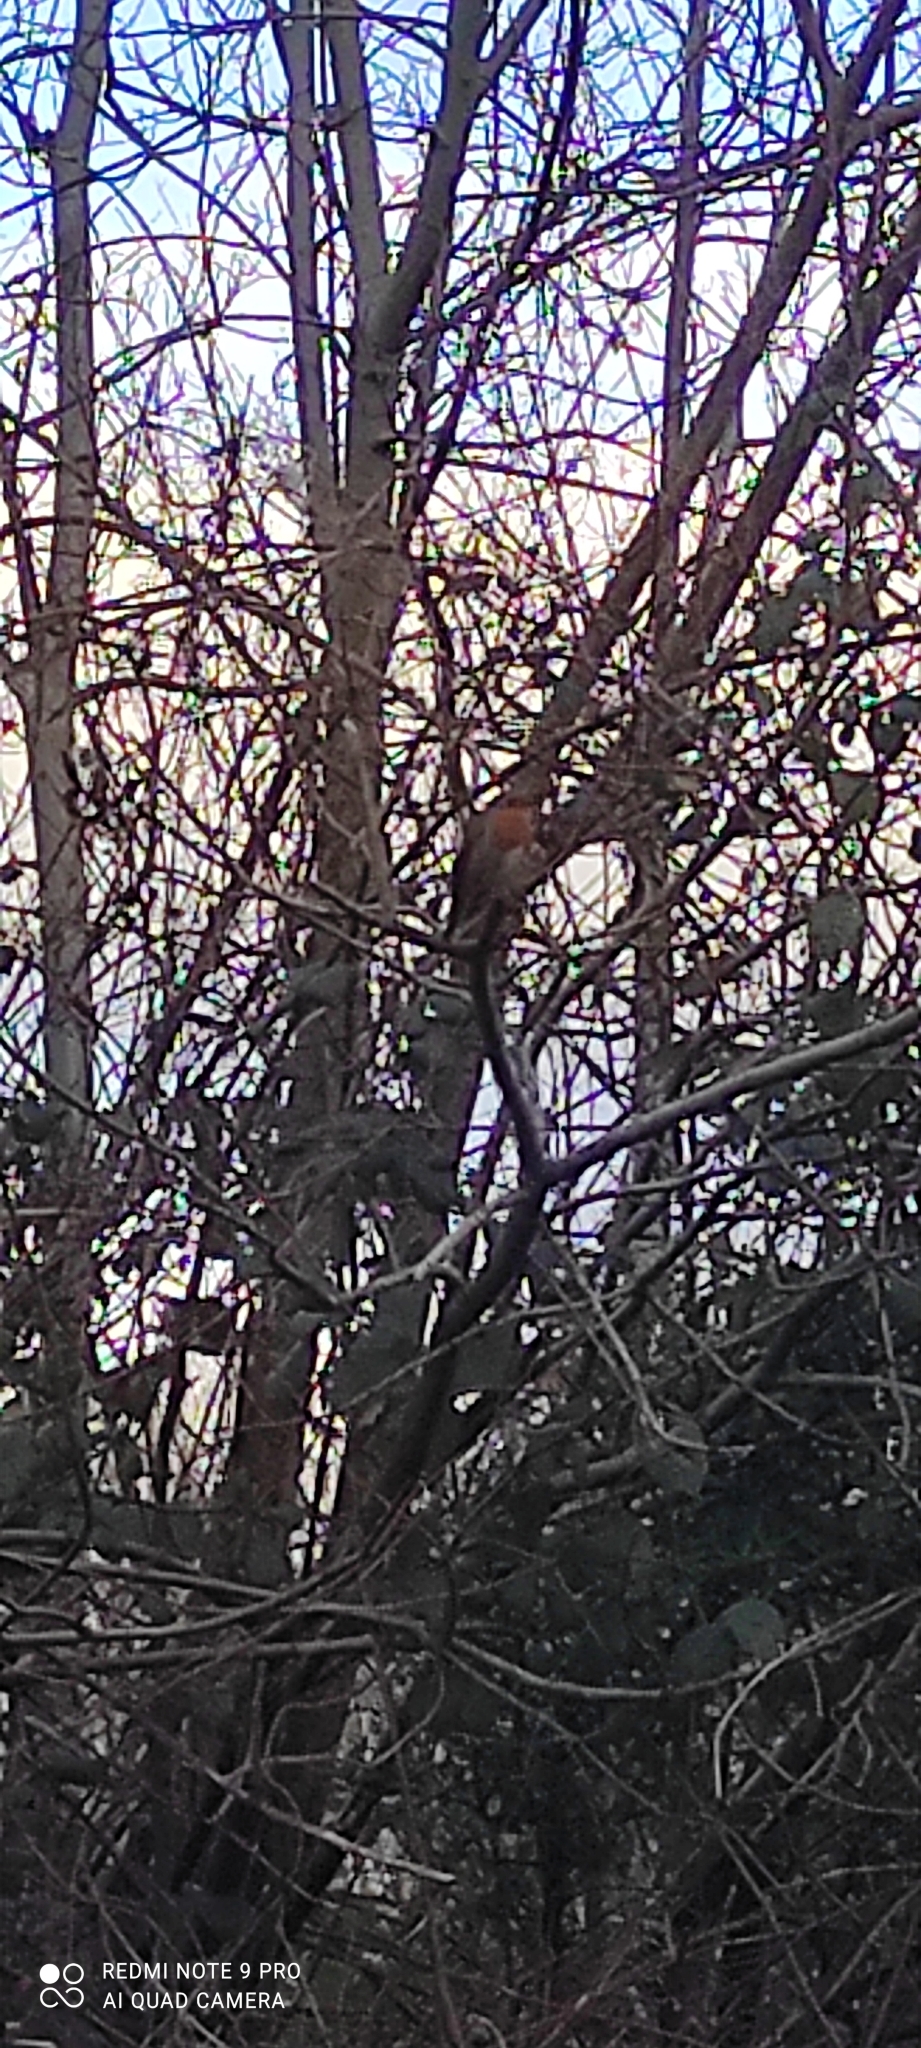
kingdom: Animalia
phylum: Chordata
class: Aves
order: Passeriformes
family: Muscicapidae
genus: Erithacus
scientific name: Erithacus rubecula
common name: European robin
